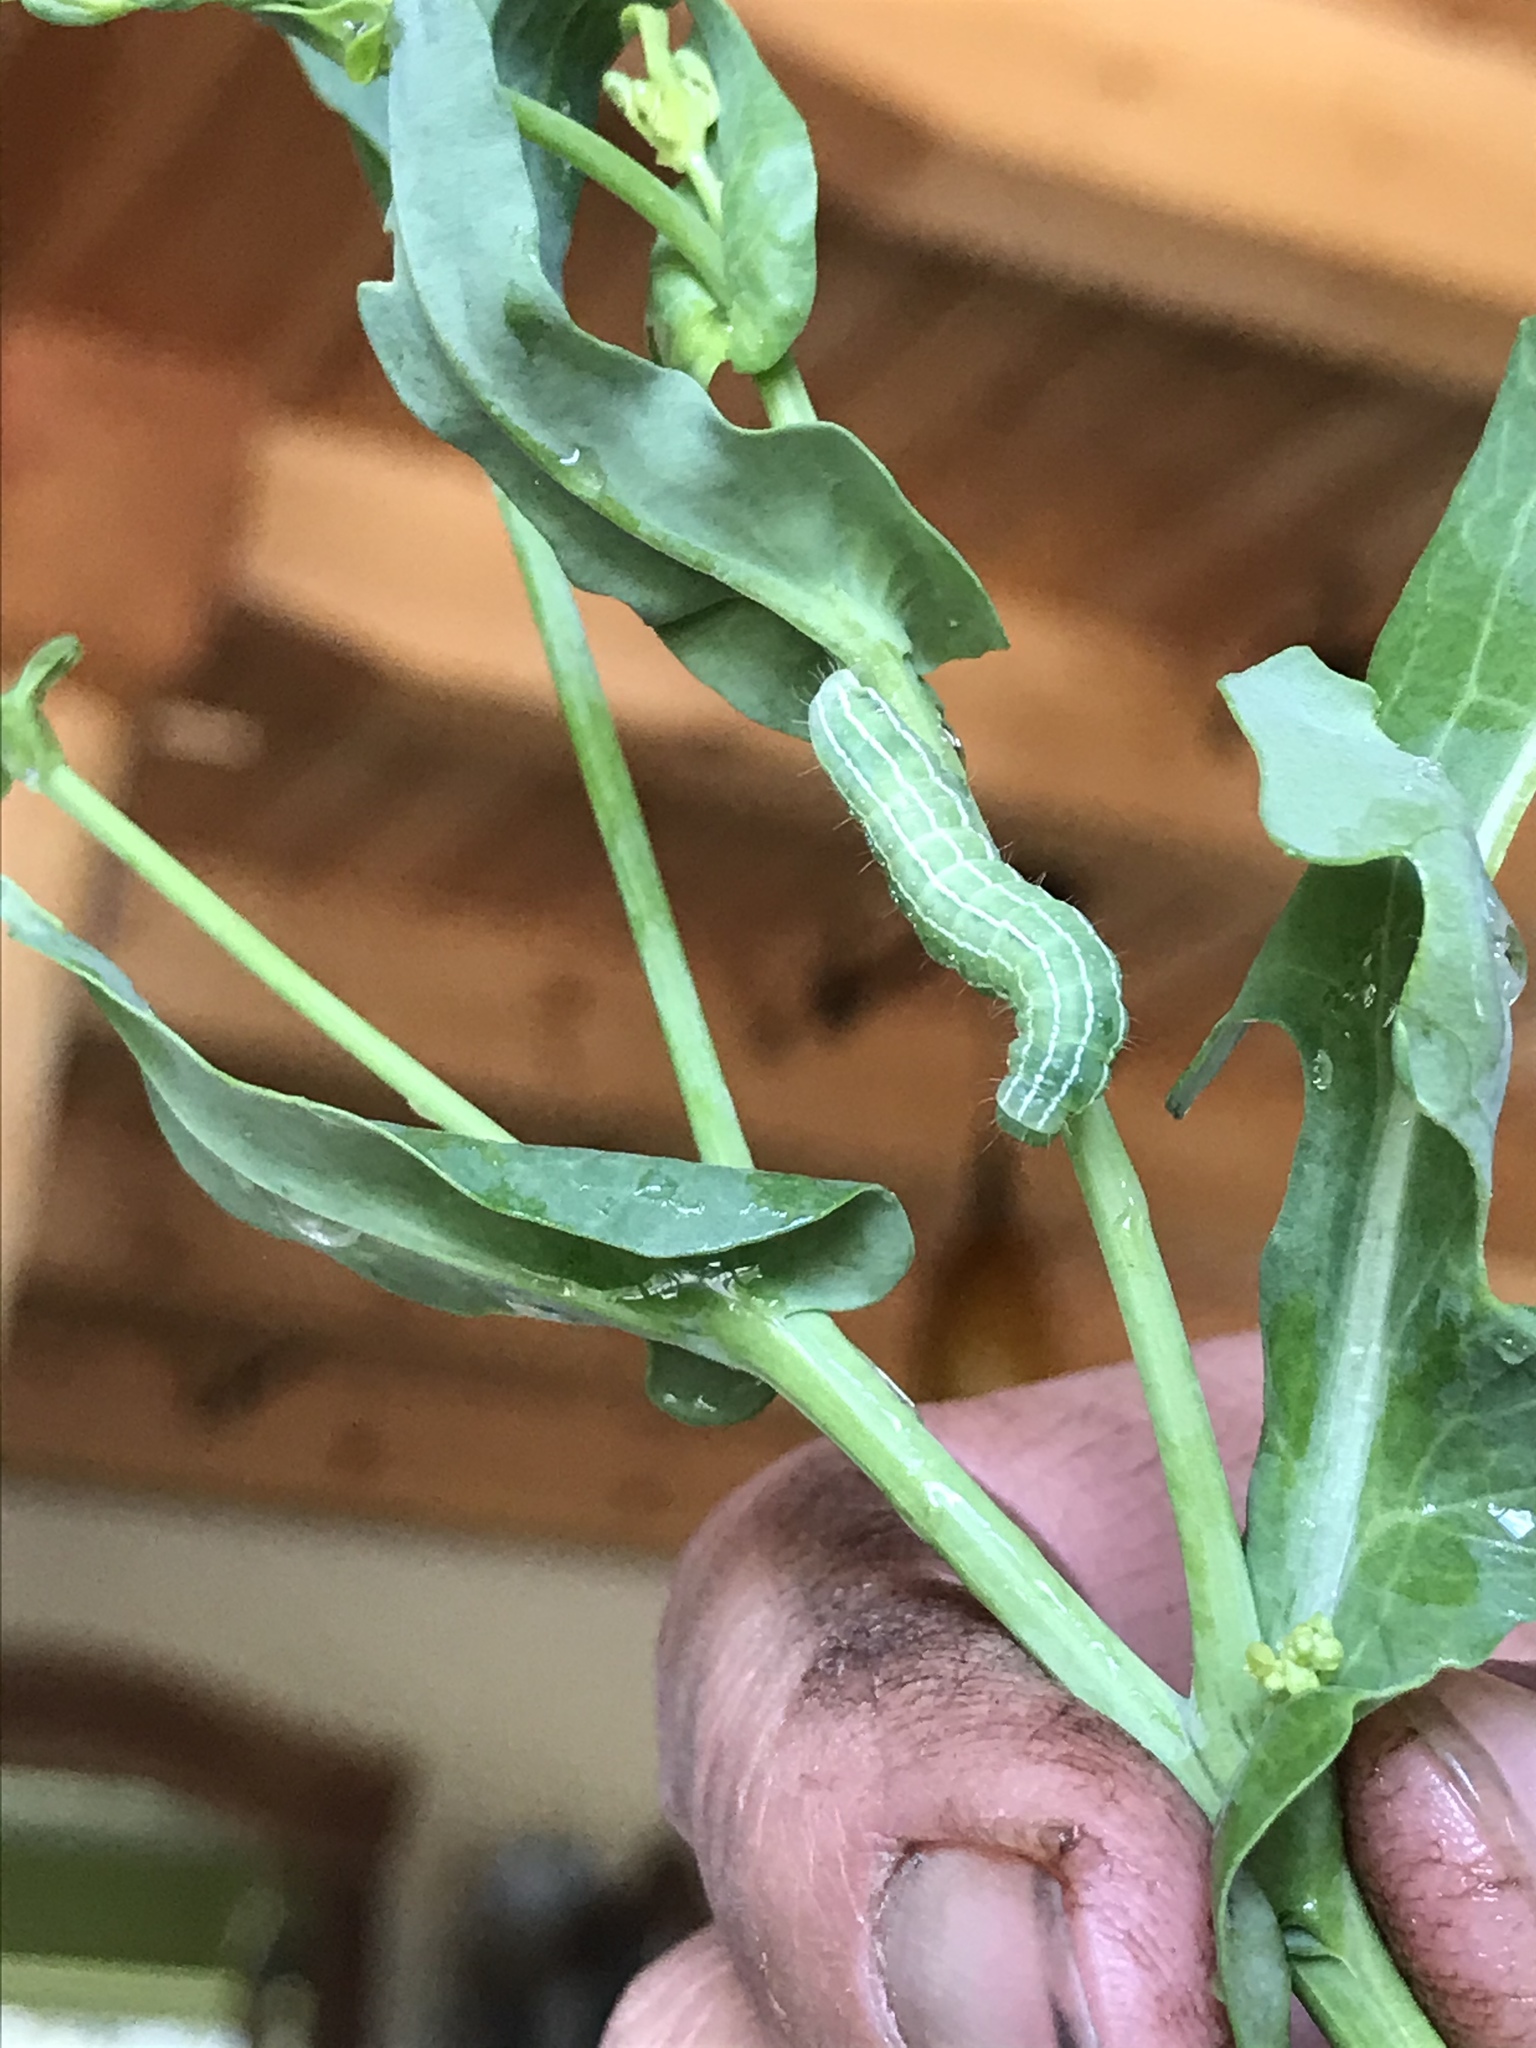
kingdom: Animalia
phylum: Arthropoda
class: Insecta
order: Lepidoptera
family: Noctuidae
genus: Amphipyra
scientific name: Amphipyra tragopoginis
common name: Mouse moth
